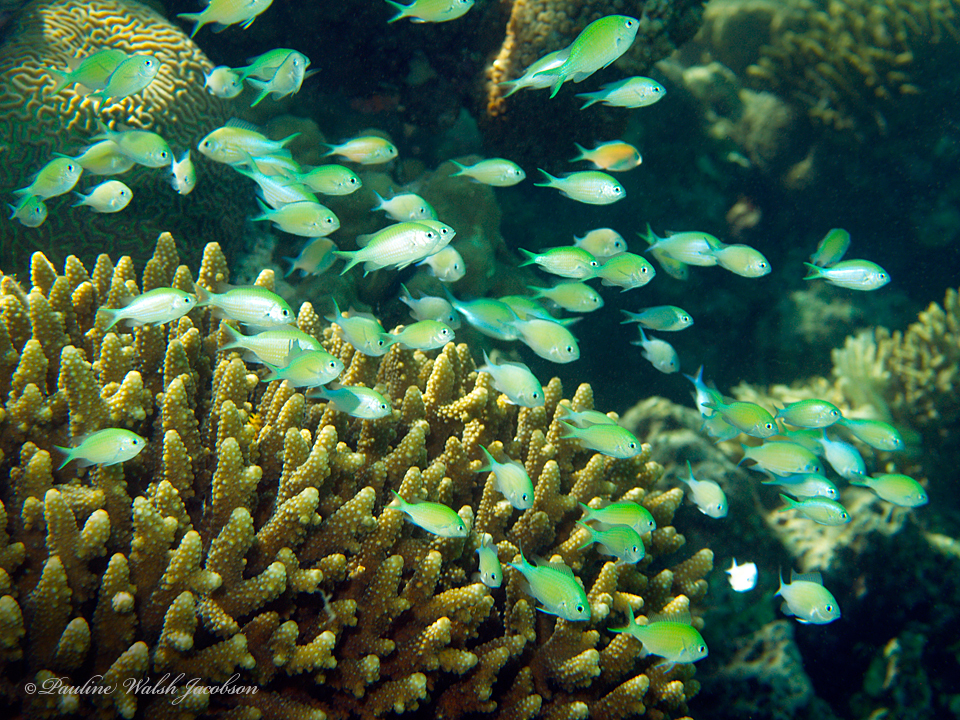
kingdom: Animalia
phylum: Chordata
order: Perciformes
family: Pomacentridae
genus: Chromis
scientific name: Chromis viridis
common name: Blue-green chromis
